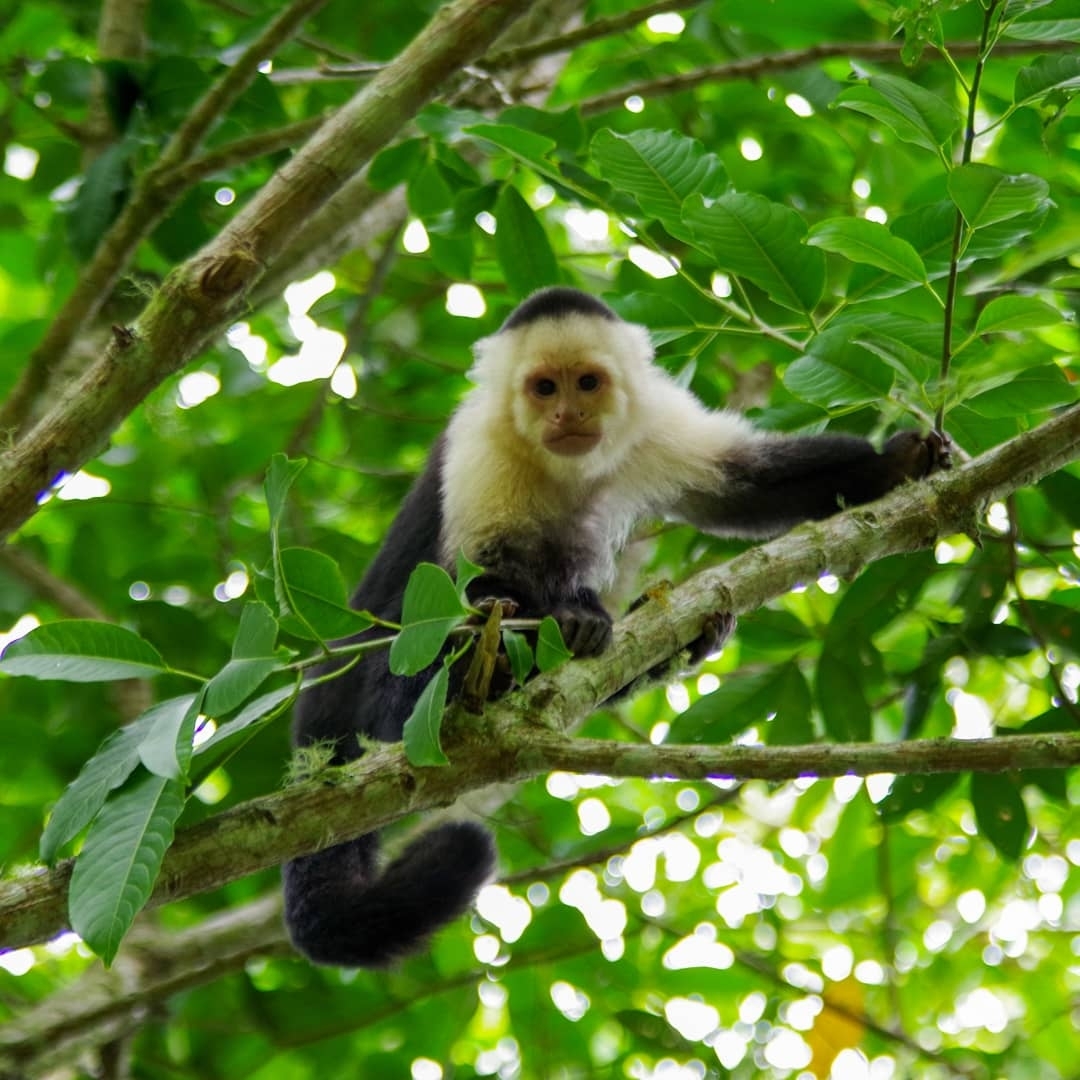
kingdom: Animalia
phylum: Chordata
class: Mammalia
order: Primates
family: Cebidae
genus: Cebus
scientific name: Cebus imitator
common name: Panamanian white-faced capuchin
